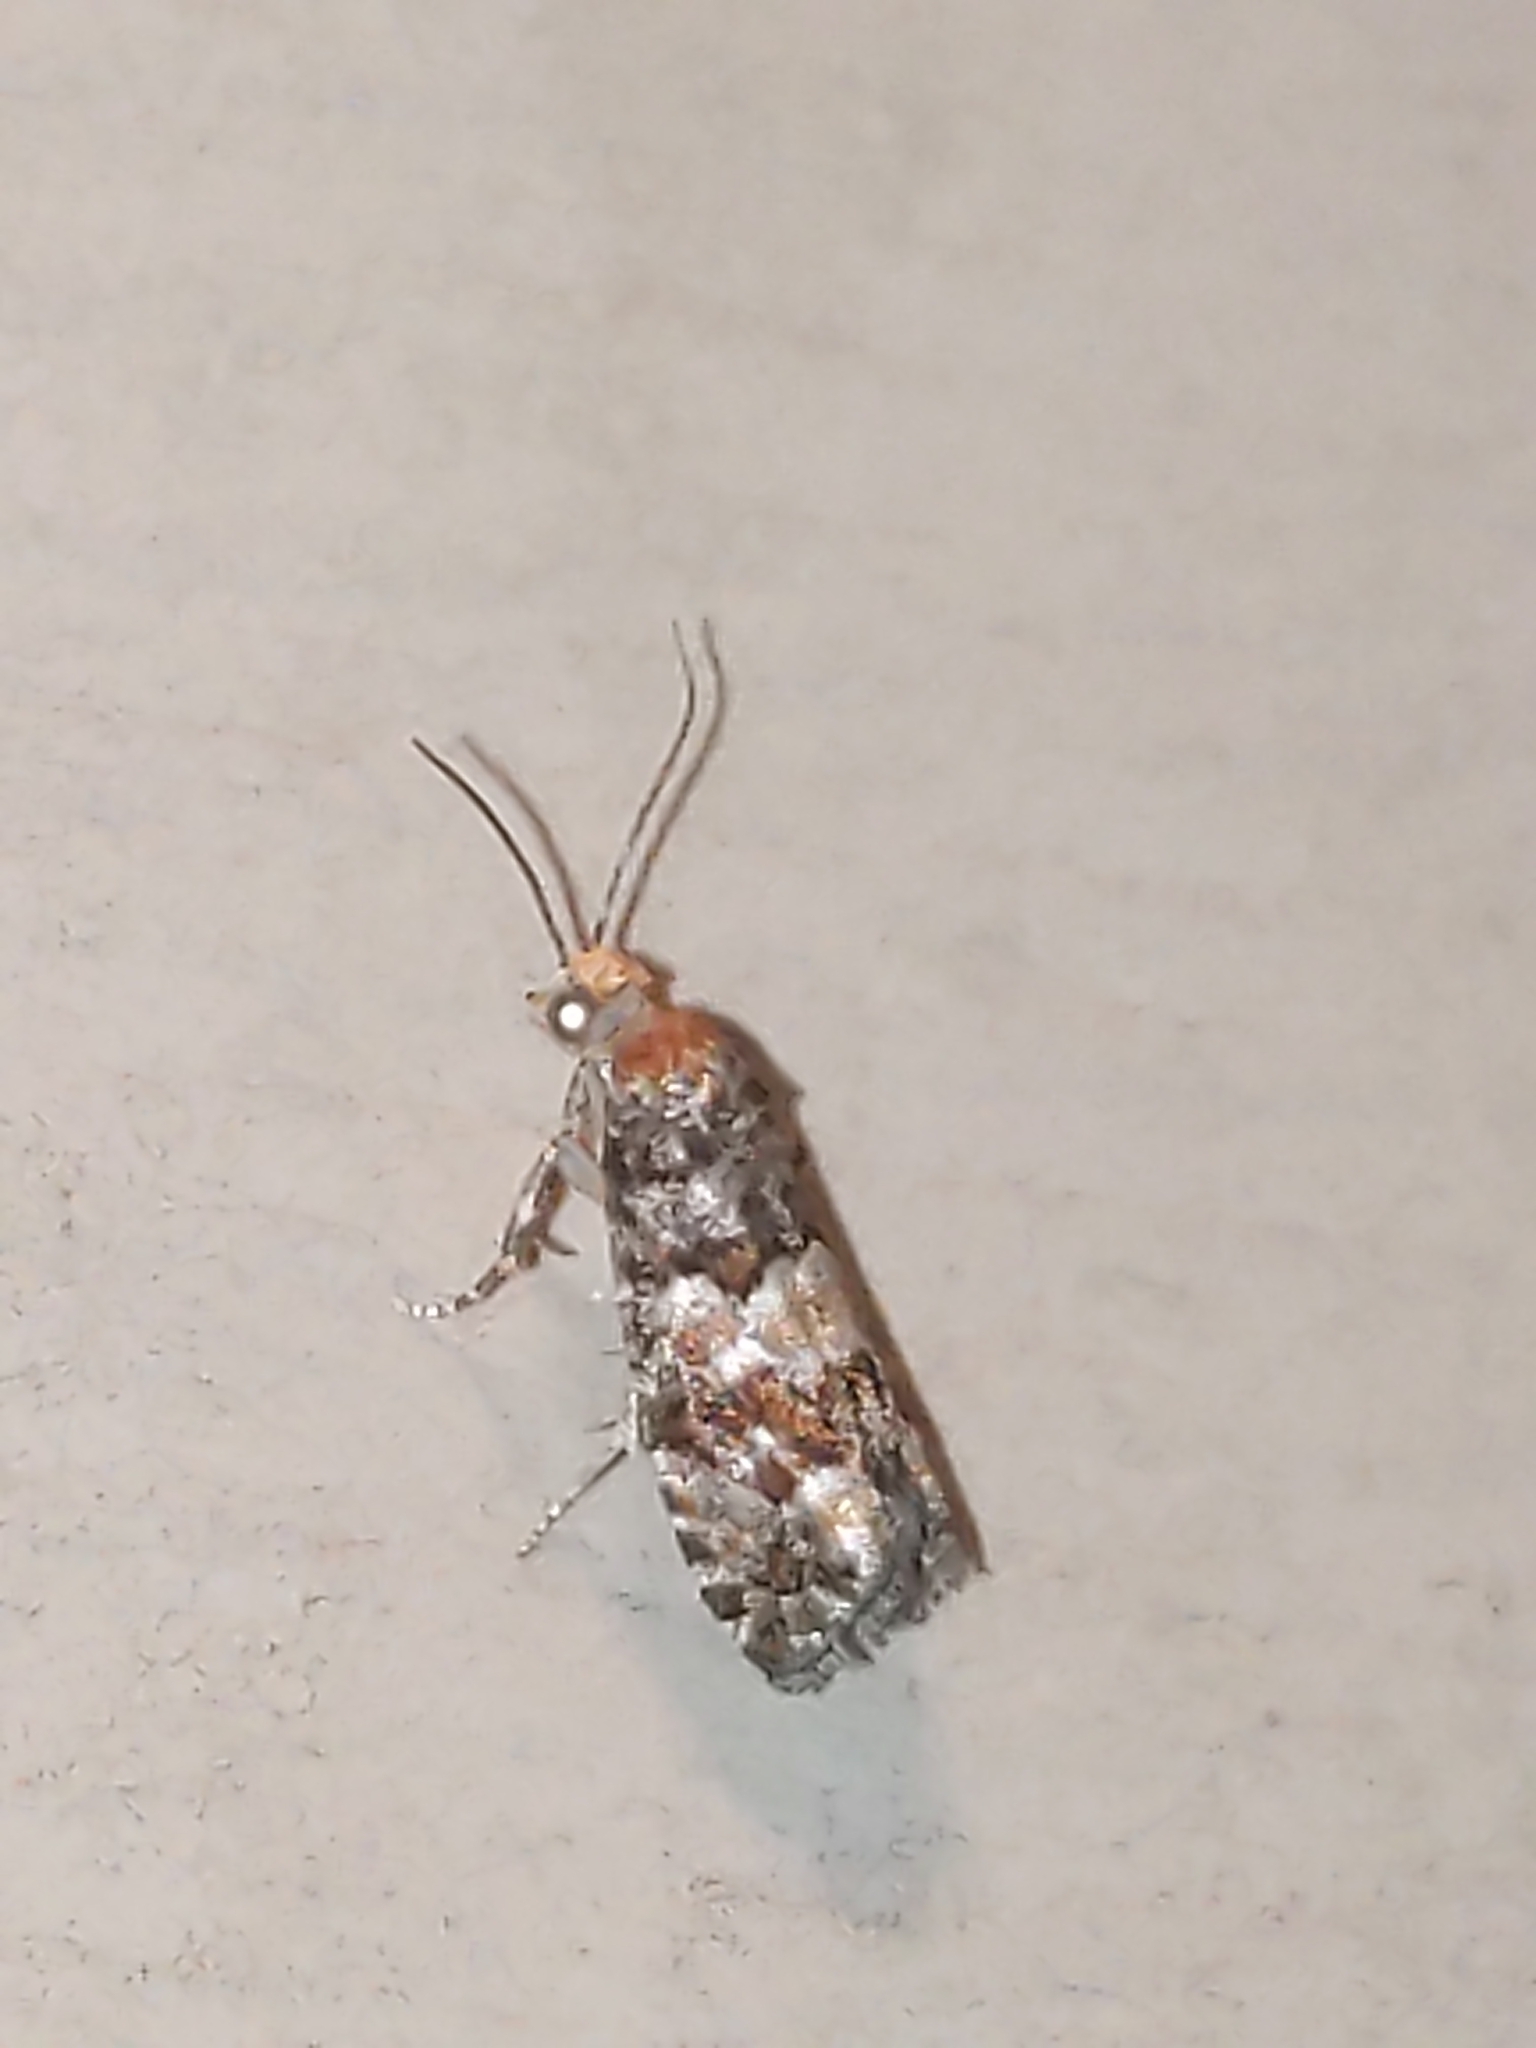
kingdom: Animalia
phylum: Arthropoda
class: Insecta
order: Lepidoptera
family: Tortricidae
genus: Eucopina
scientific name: Eucopina tocullionana
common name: White pinecone borer moth
